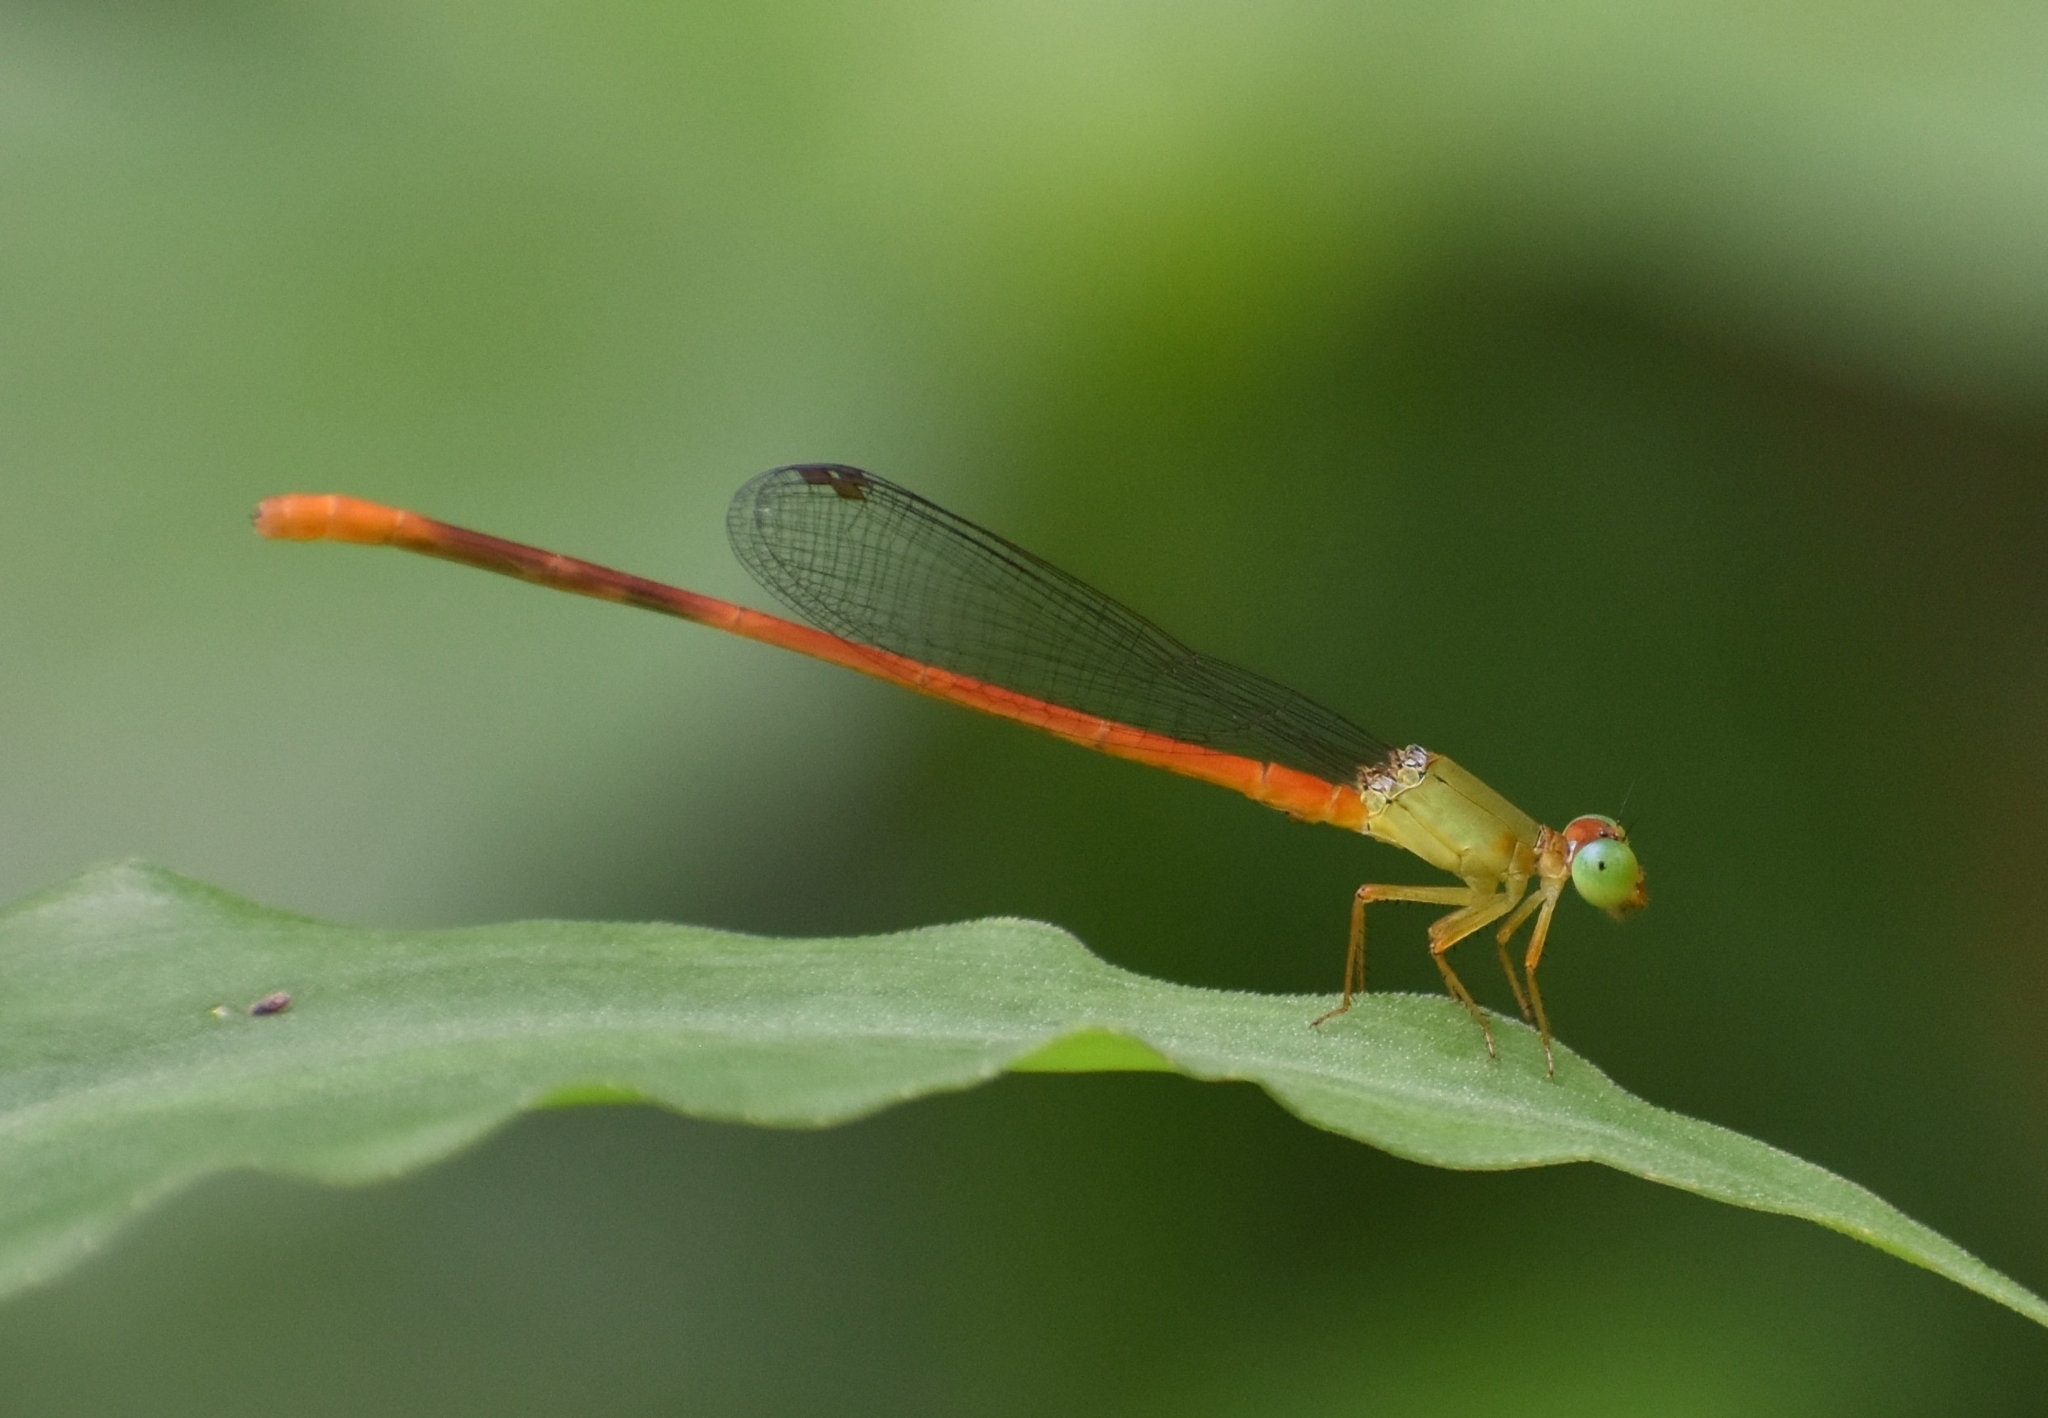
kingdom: Animalia
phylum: Arthropoda
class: Insecta
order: Odonata
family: Coenagrionidae
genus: Ceriagrion
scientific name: Ceriagrion auranticum
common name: Orange-tailed sprite
